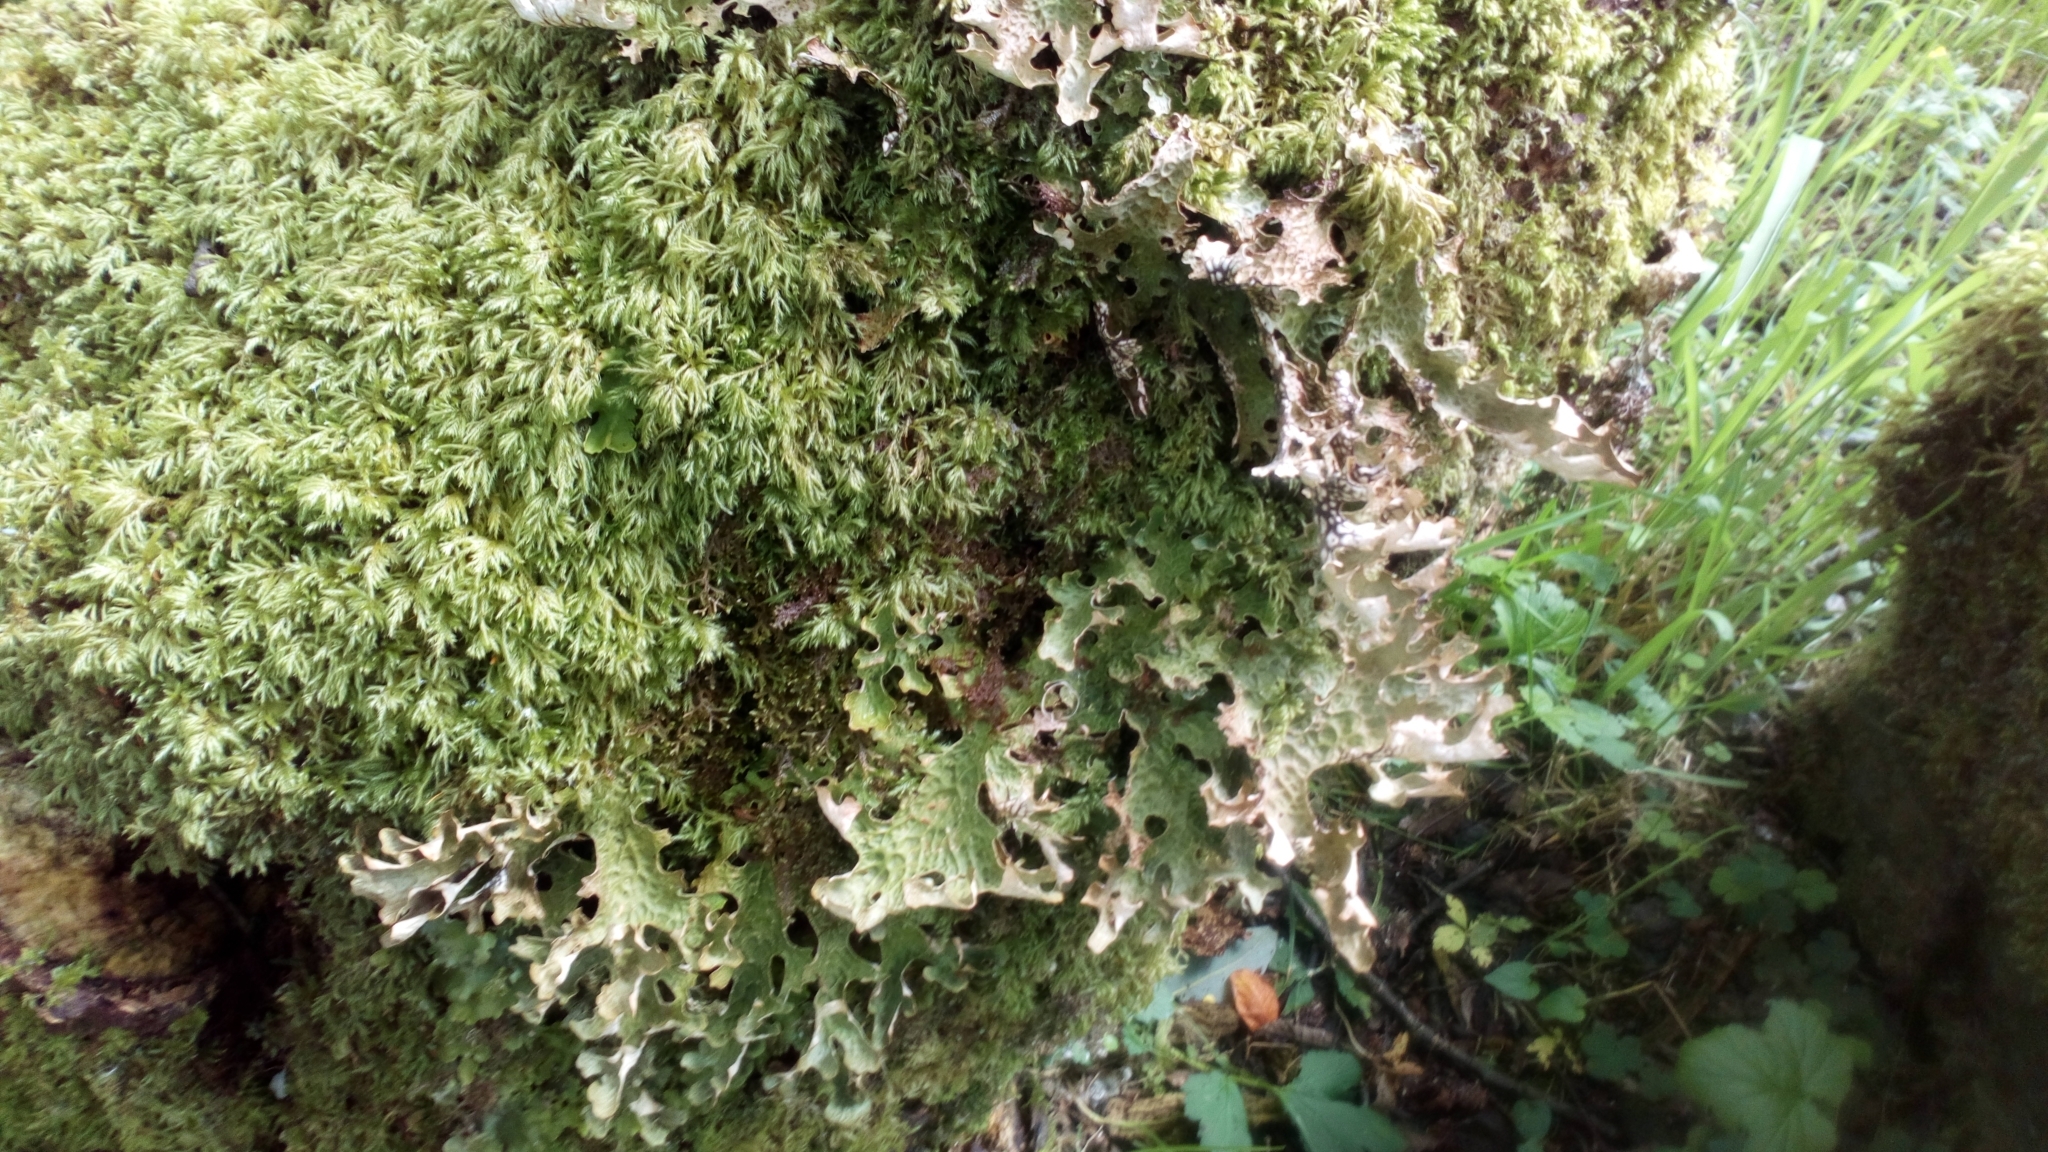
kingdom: Fungi
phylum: Ascomycota
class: Lecanoromycetes
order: Peltigerales
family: Lobariaceae
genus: Lobaria
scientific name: Lobaria pulmonaria
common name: Lungwort
